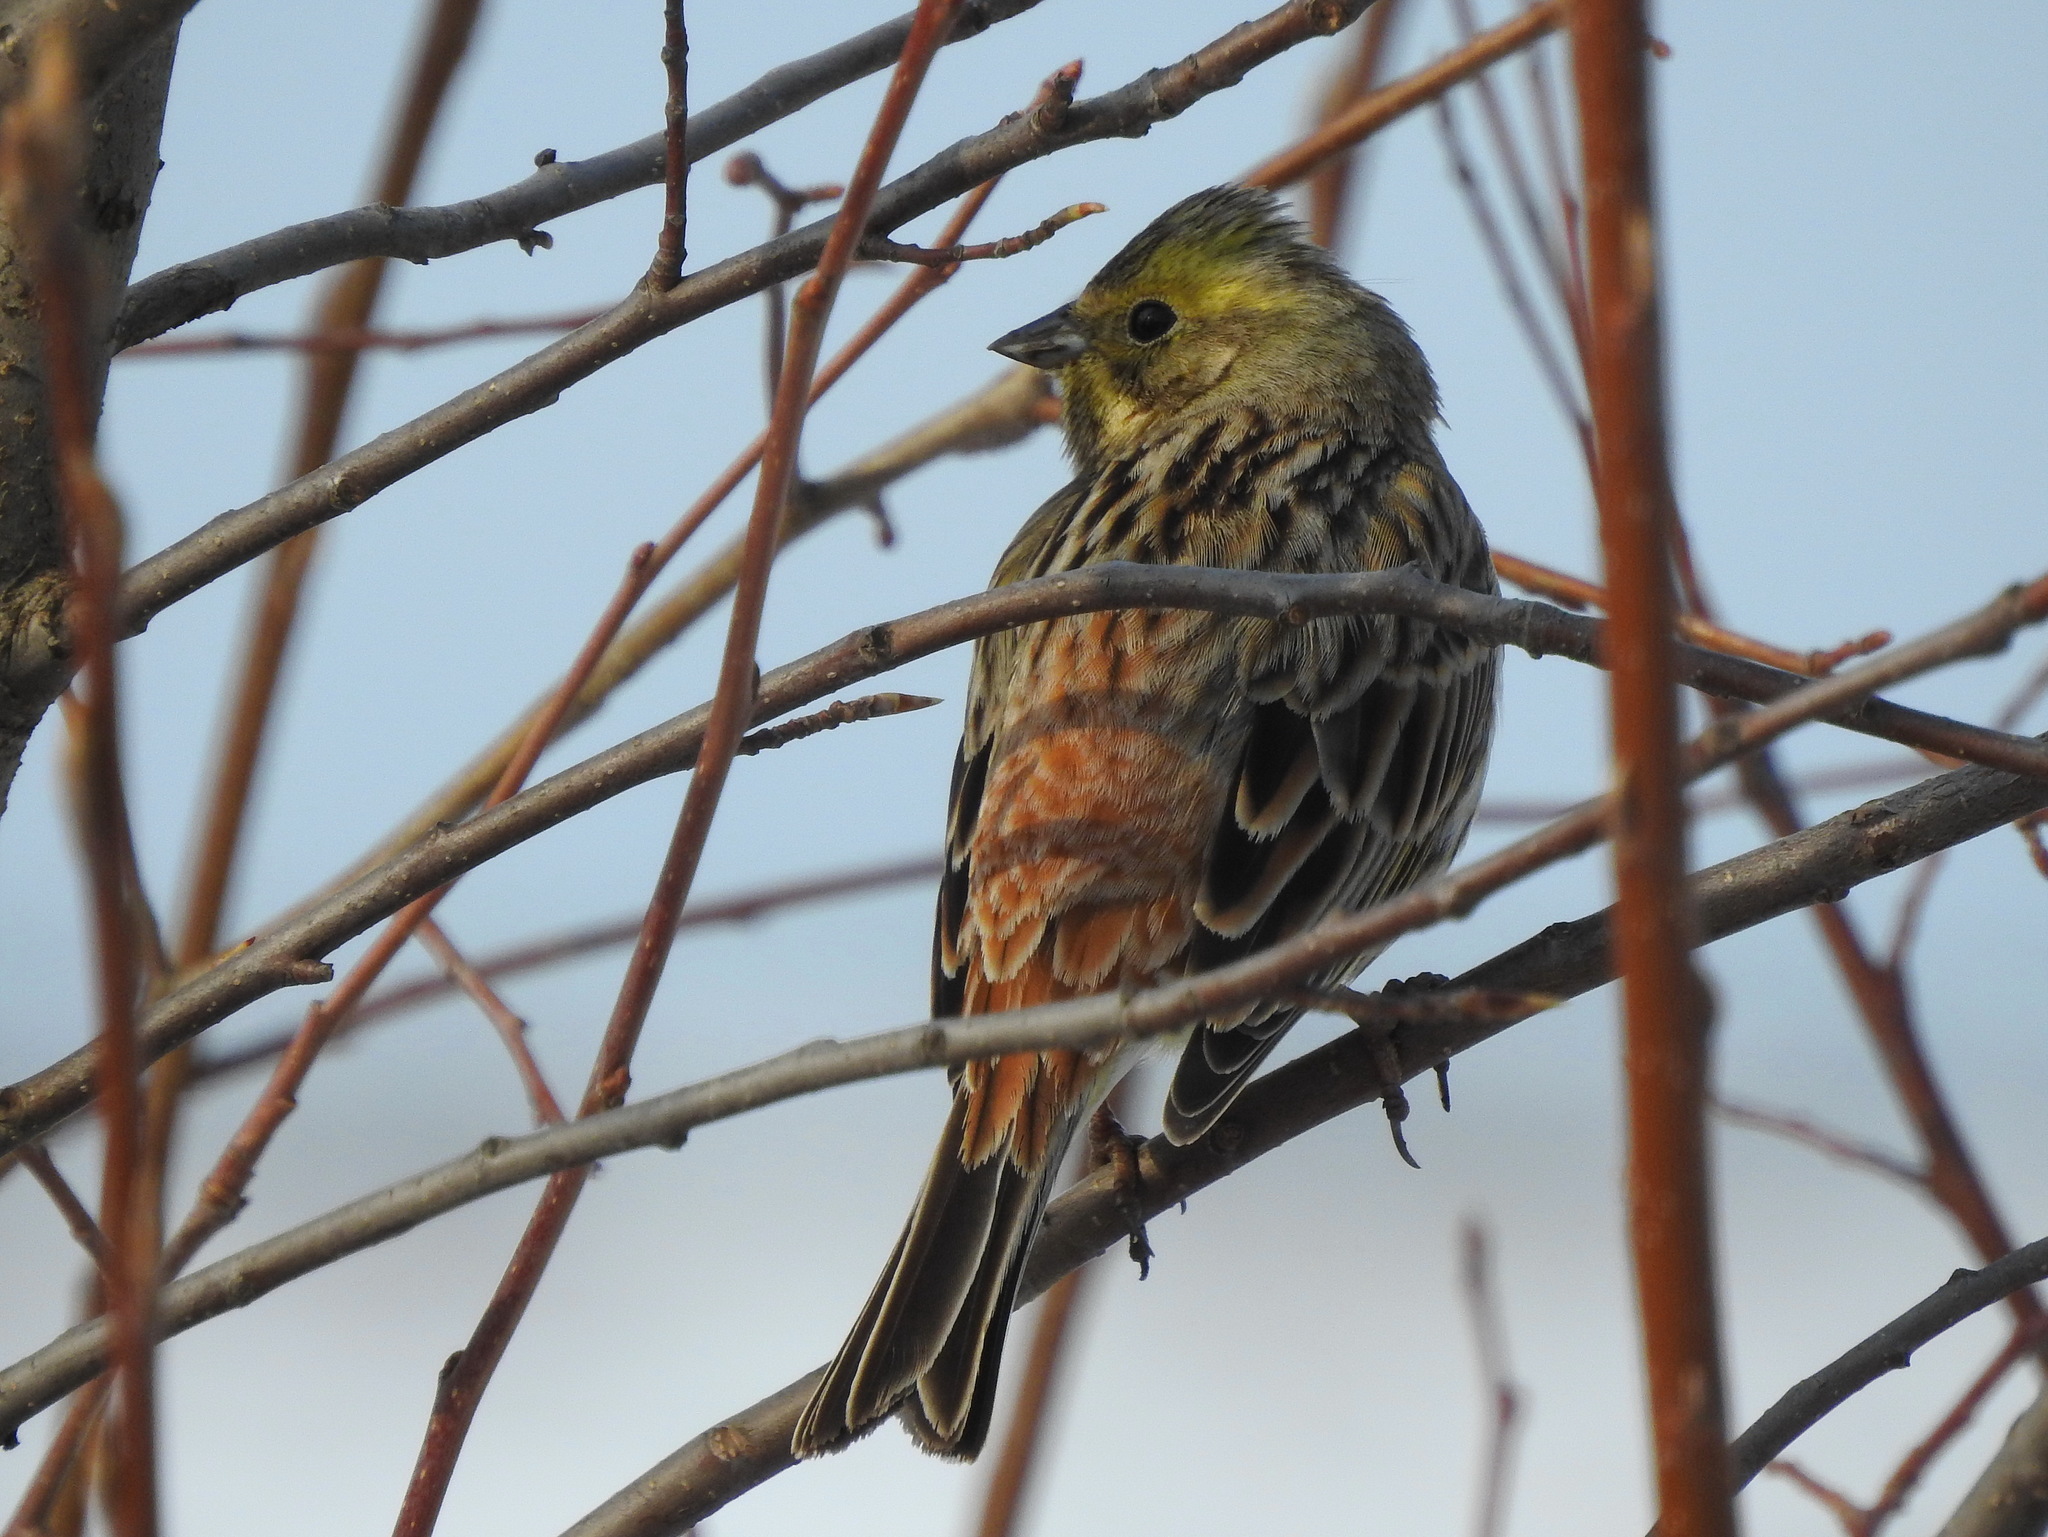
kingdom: Animalia
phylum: Chordata
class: Aves
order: Passeriformes
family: Emberizidae
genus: Emberiza
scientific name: Emberiza citrinella
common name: Yellowhammer
